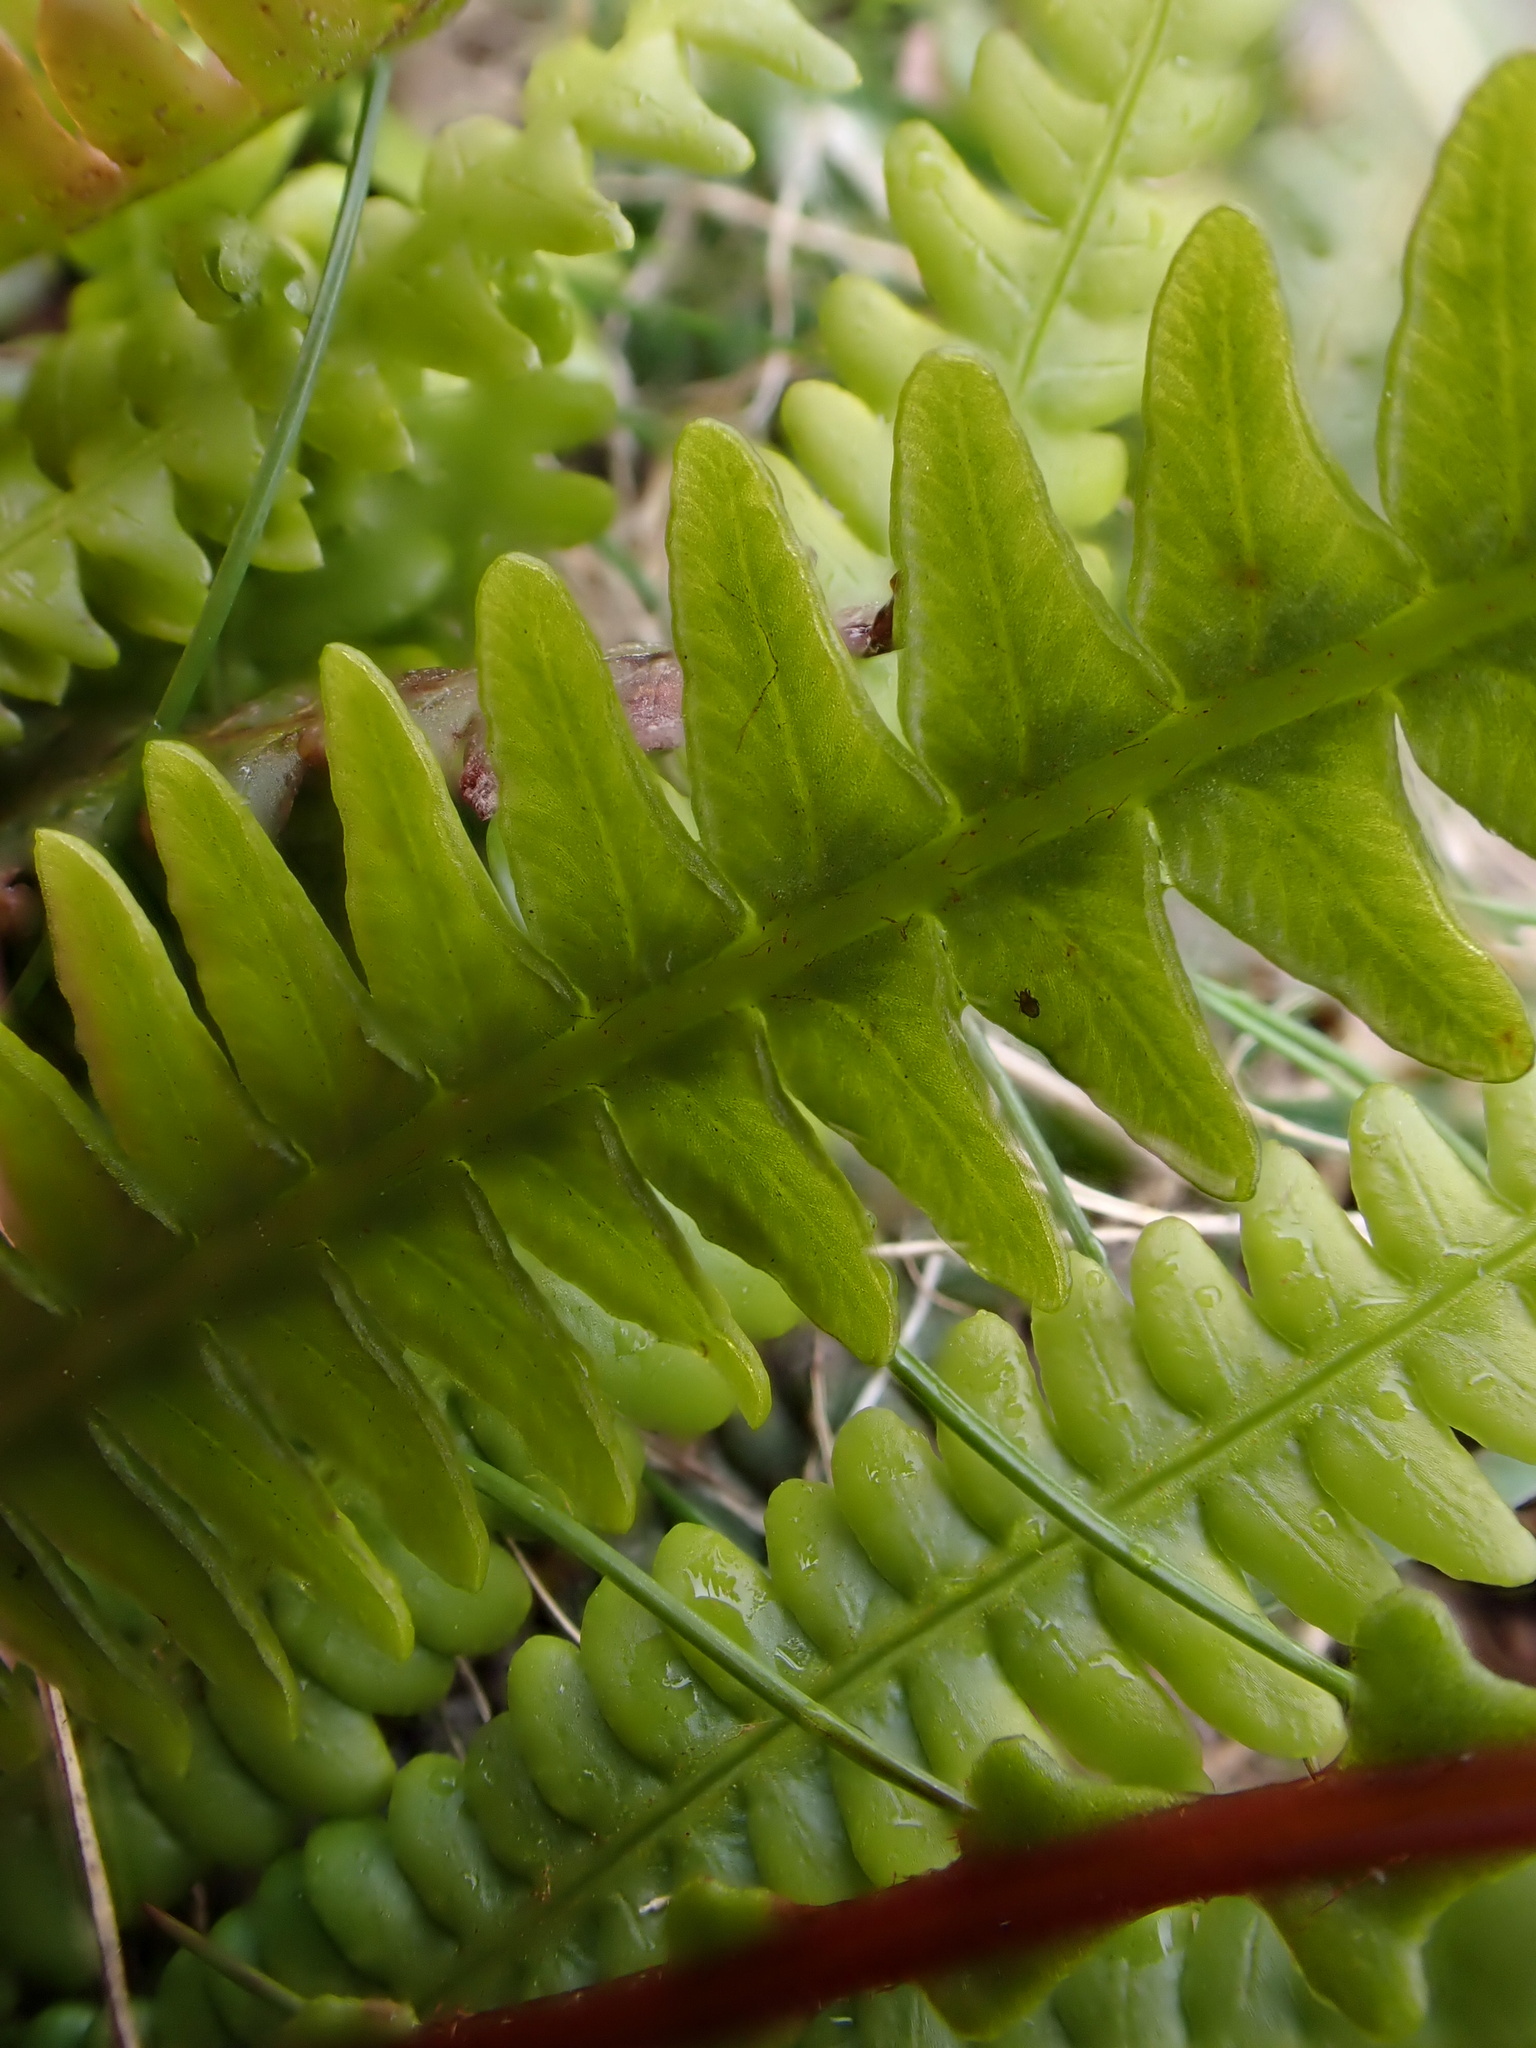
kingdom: Plantae
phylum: Tracheophyta
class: Polypodiopsida
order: Polypodiales
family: Blechnaceae
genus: Struthiopteris
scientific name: Struthiopteris spicant
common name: Deer fern
